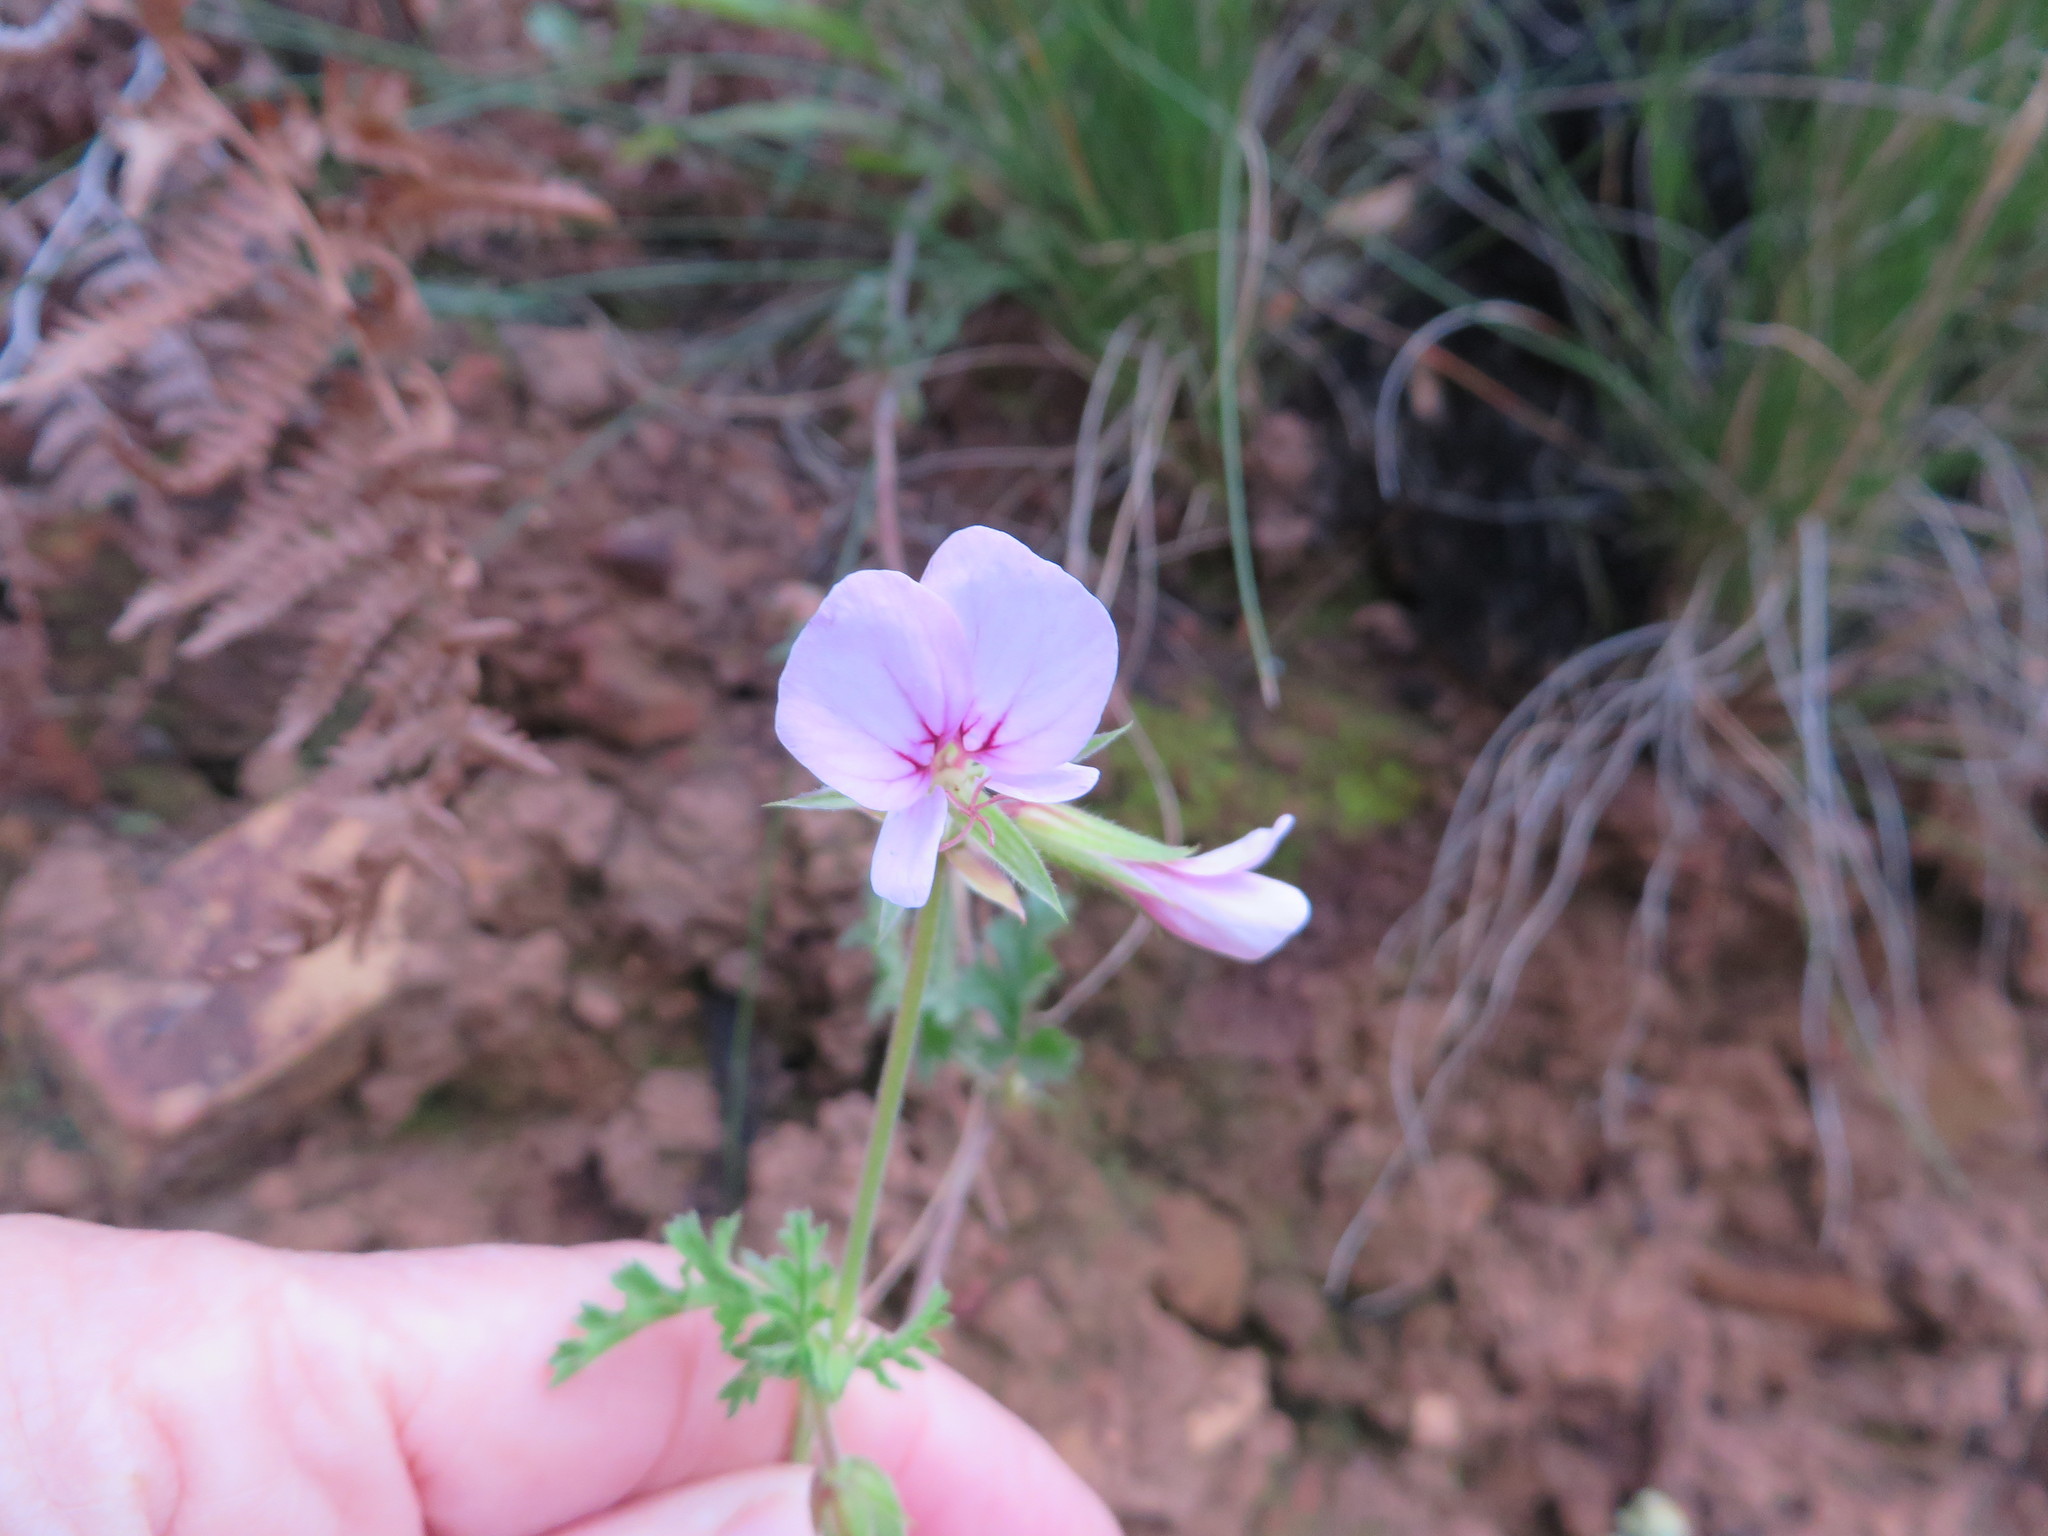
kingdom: Plantae
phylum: Tracheophyta
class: Magnoliopsida
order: Geraniales
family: Geraniaceae
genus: Pelargonium
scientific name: Pelargonium myrrhifolium
